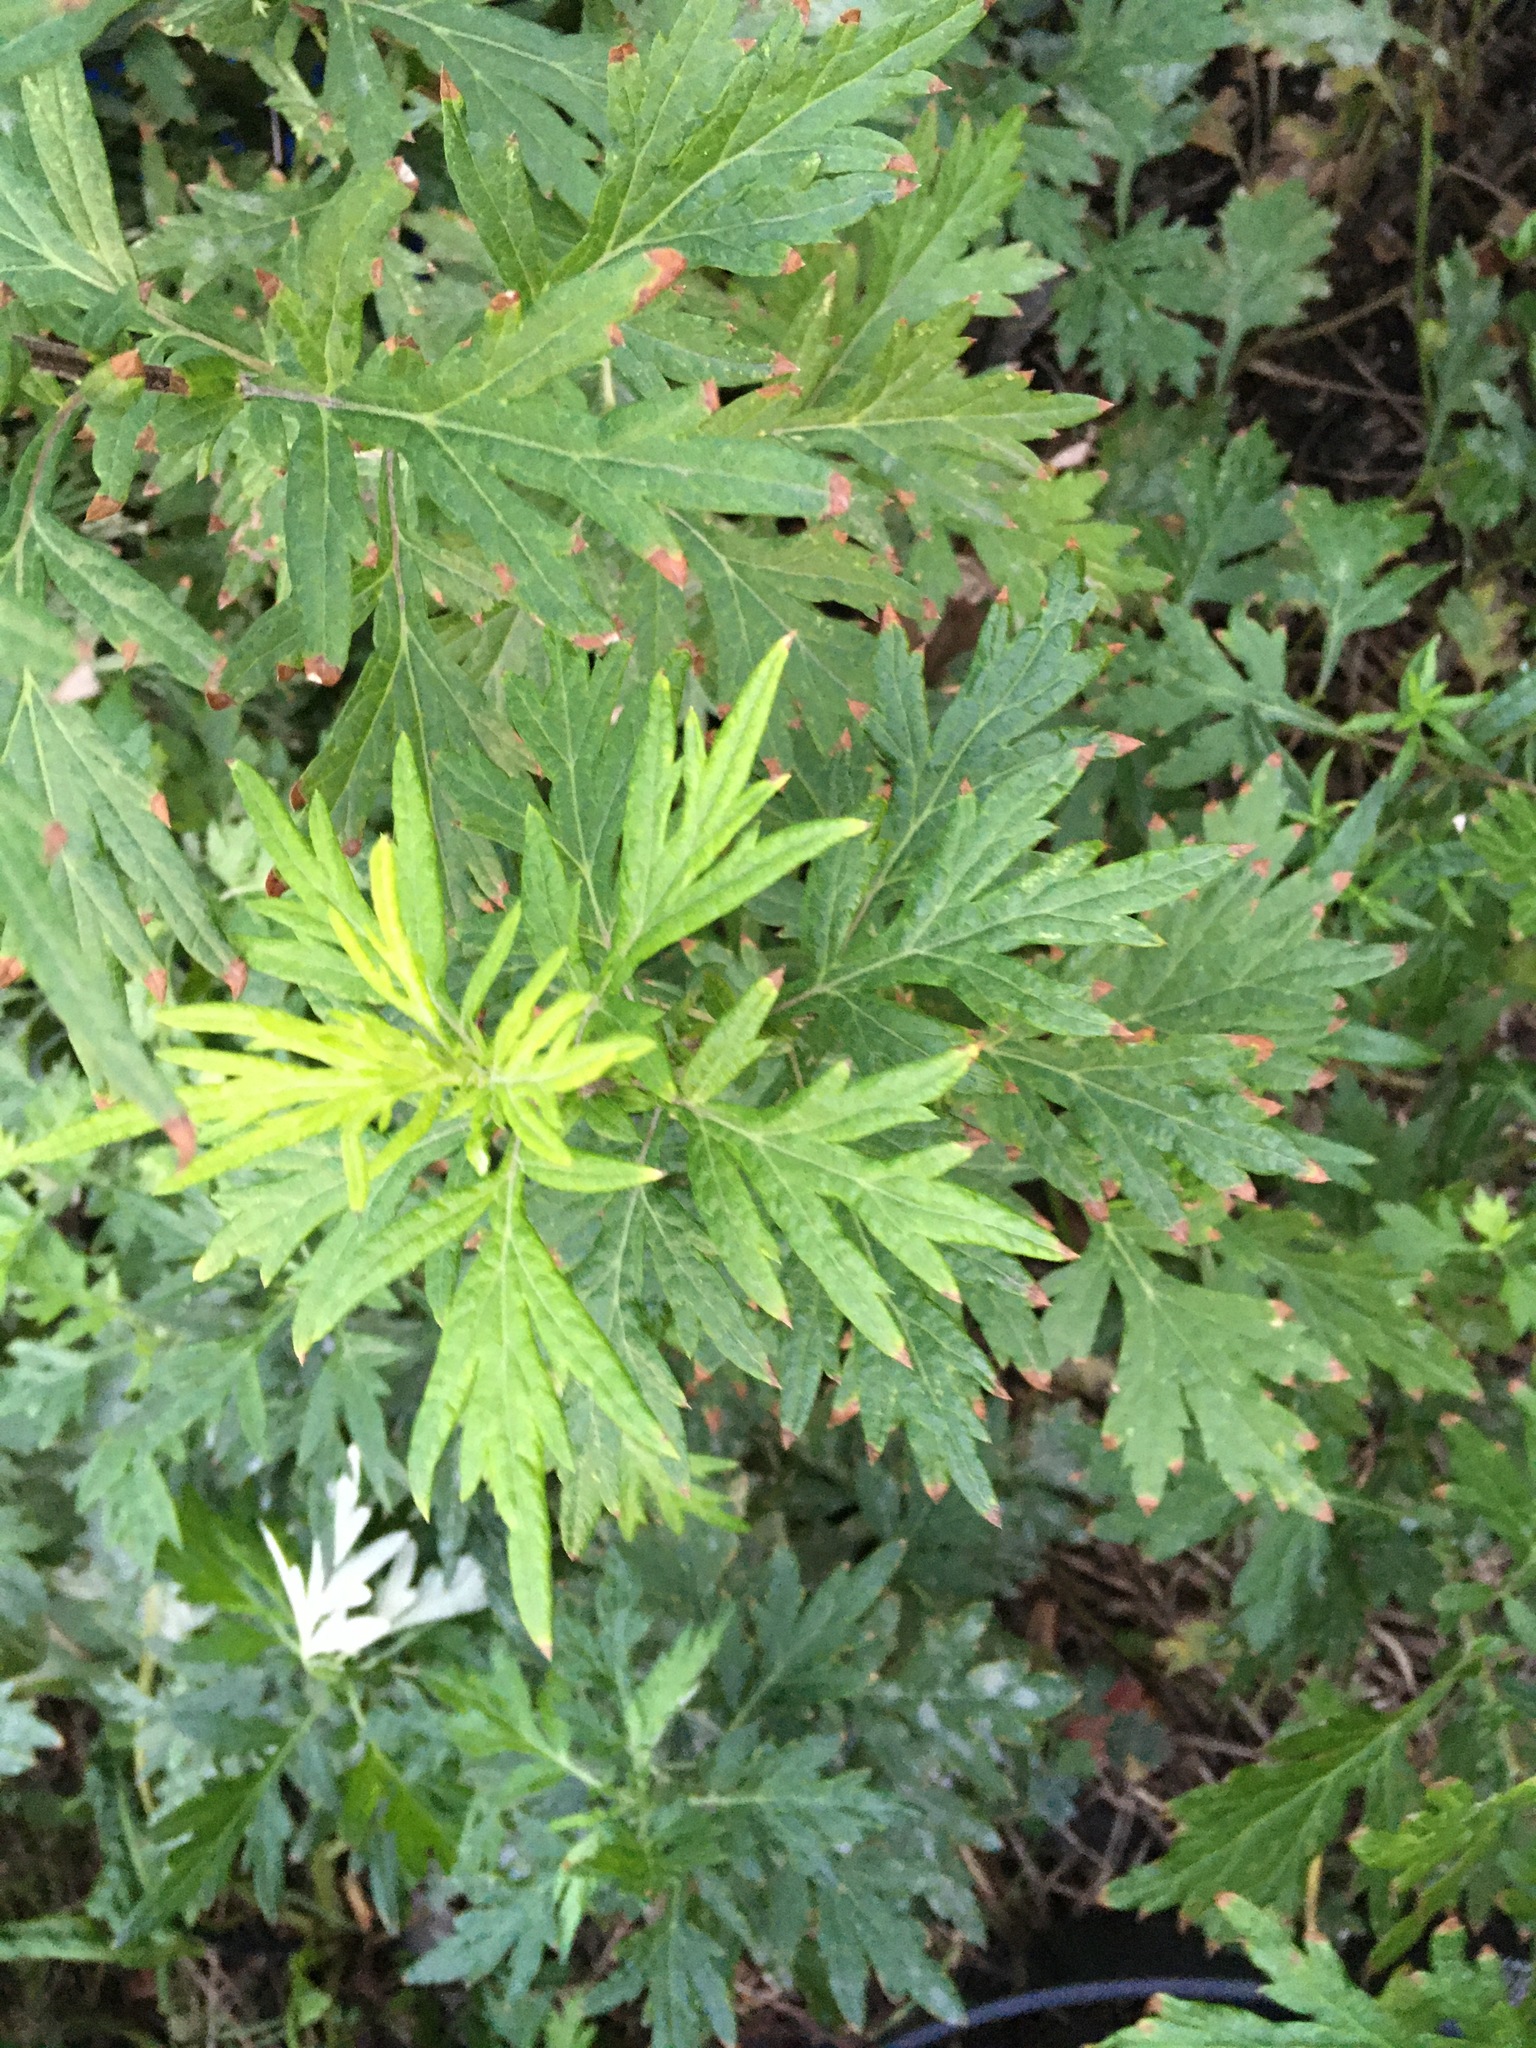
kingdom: Plantae
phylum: Tracheophyta
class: Magnoliopsida
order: Asterales
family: Asteraceae
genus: Artemisia
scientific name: Artemisia vulgaris
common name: Mugwort
